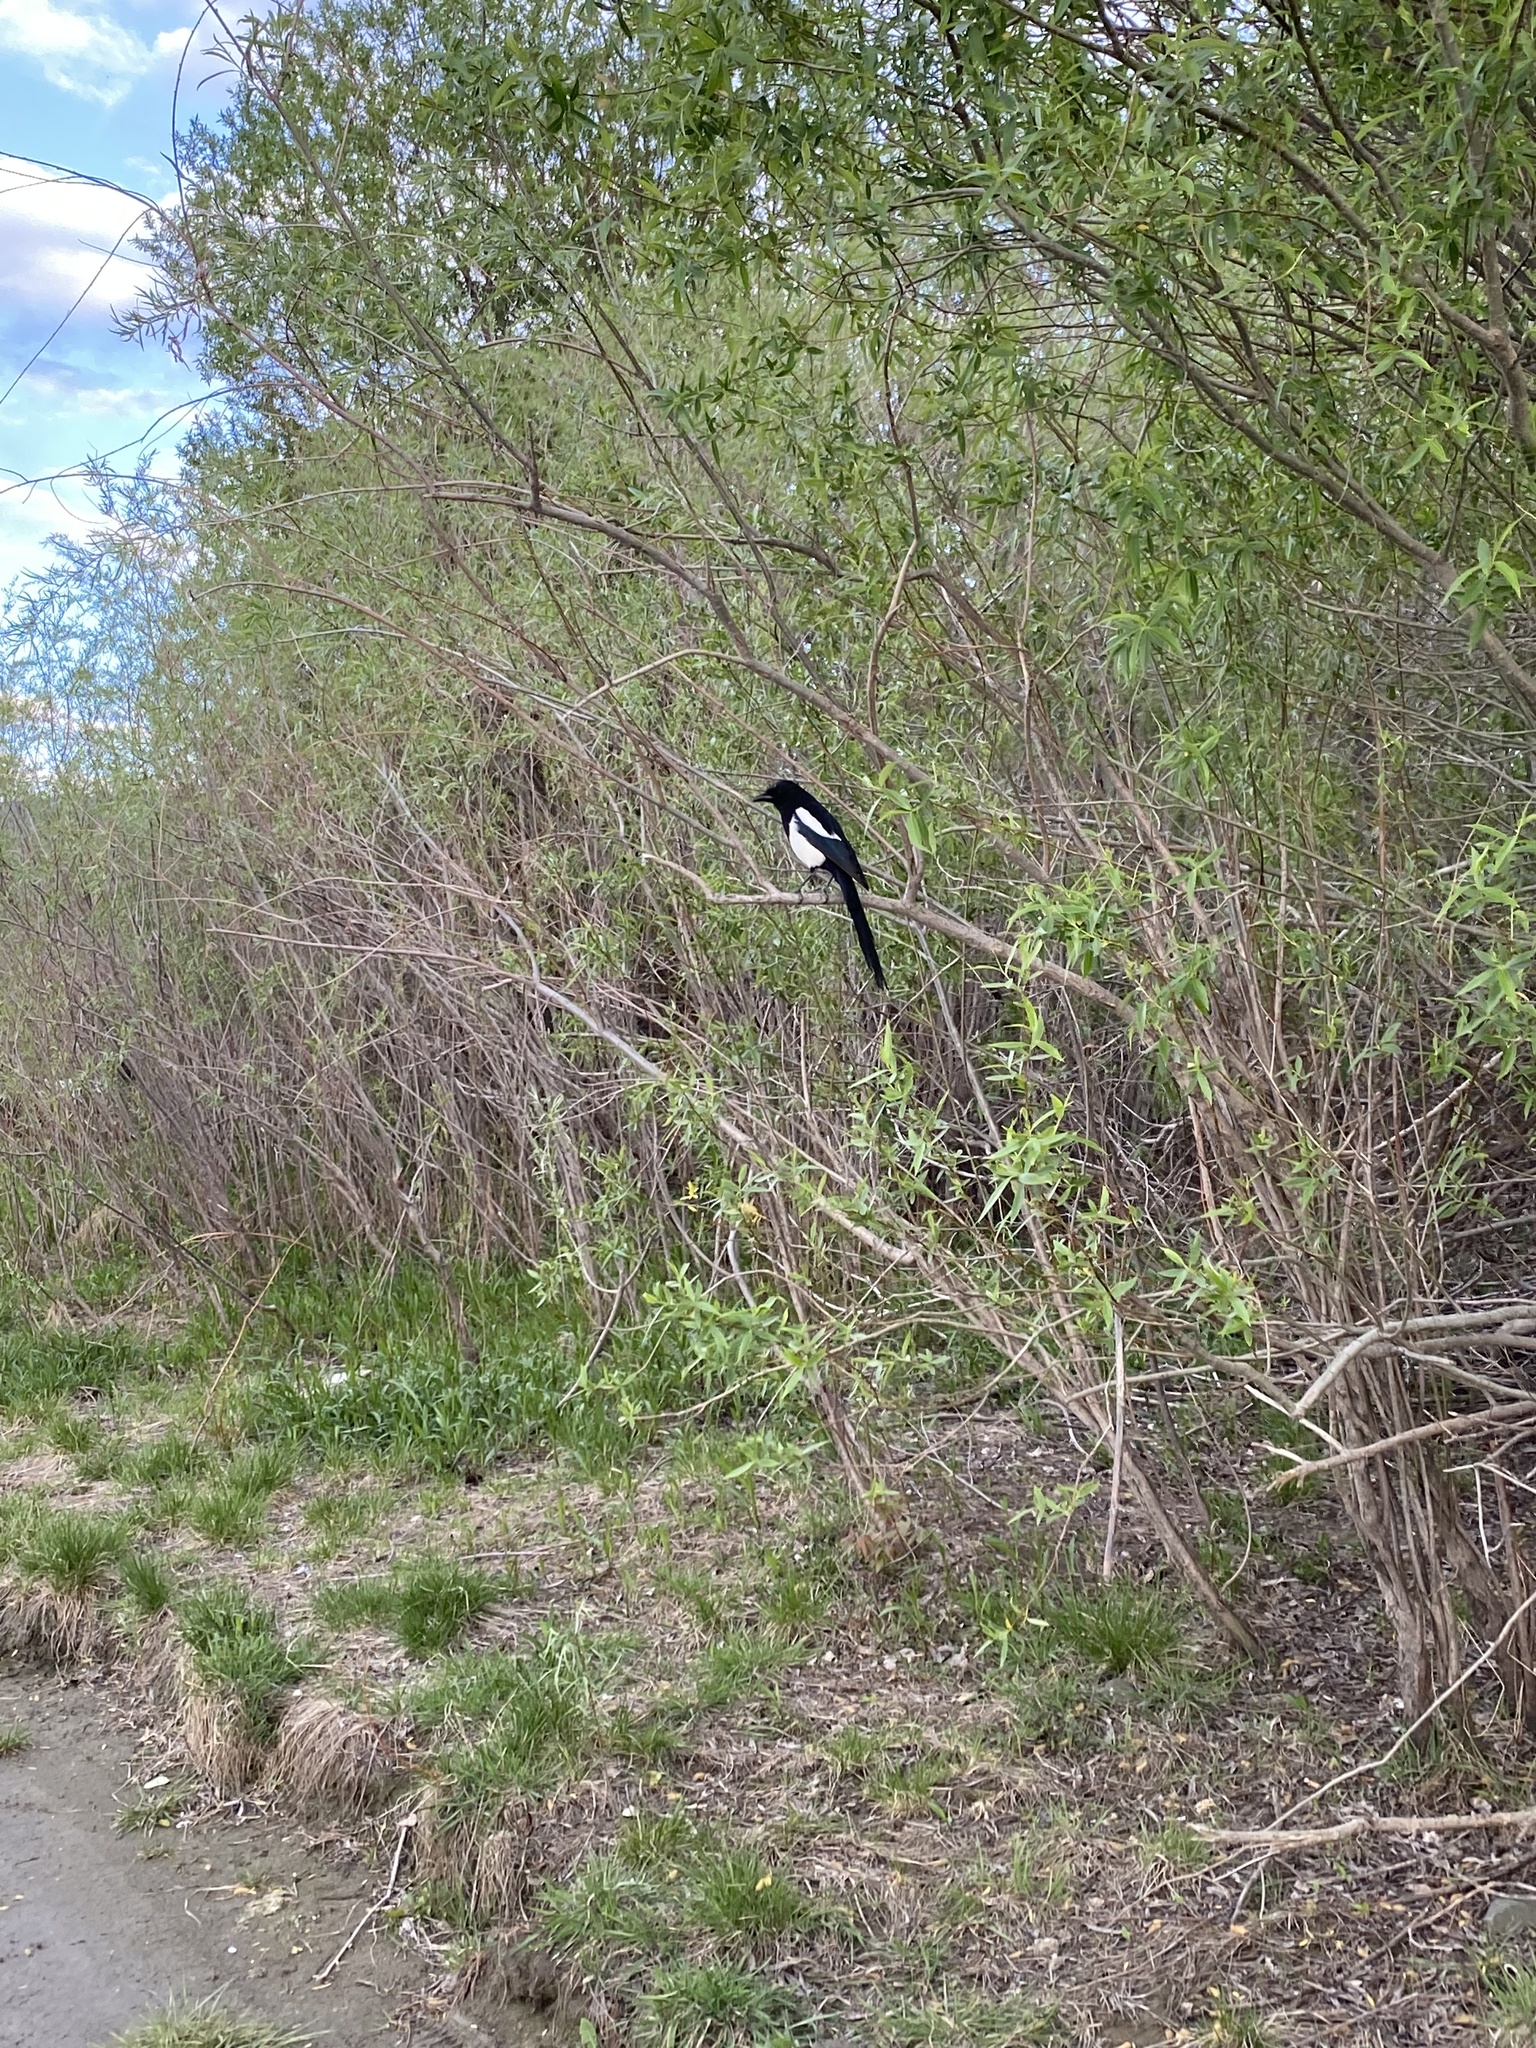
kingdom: Animalia
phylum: Chordata
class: Aves
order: Passeriformes
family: Corvidae
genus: Pica
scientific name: Pica hudsonia
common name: Black-billed magpie
